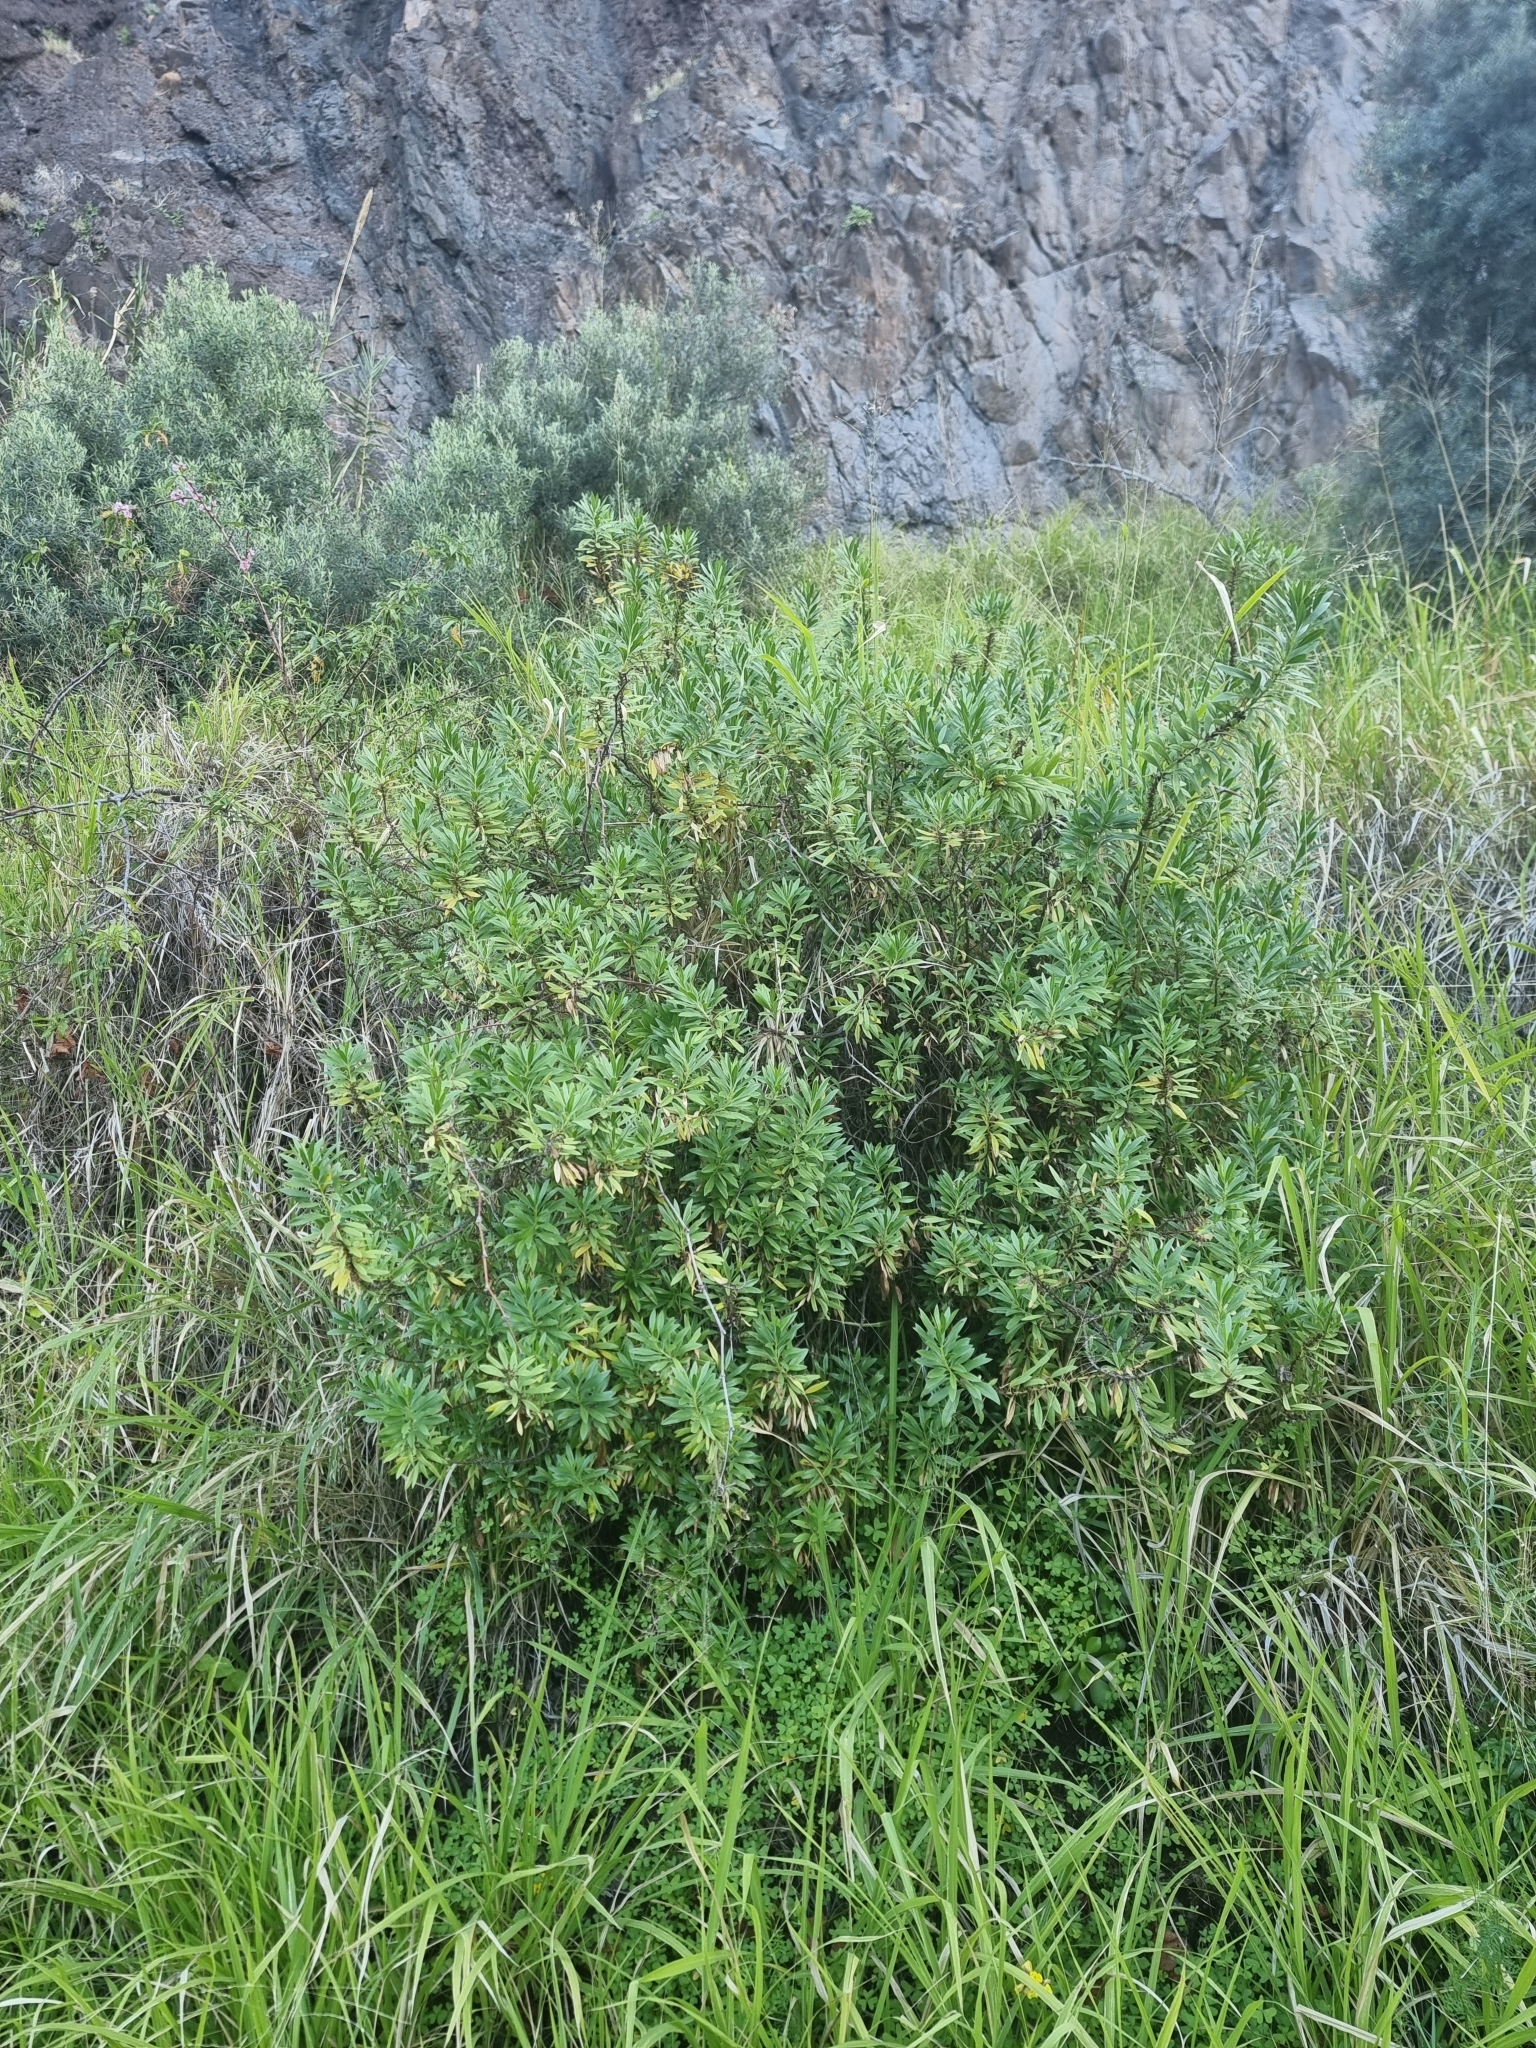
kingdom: Plantae
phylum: Tracheophyta
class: Magnoliopsida
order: Lamiales
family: Plantaginaceae
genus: Globularia
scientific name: Globularia salicina
